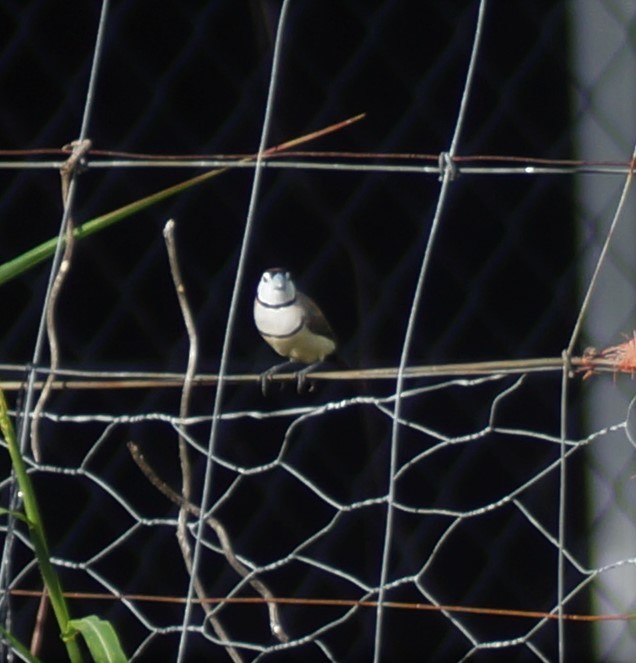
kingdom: Animalia
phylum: Chordata
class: Aves
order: Passeriformes
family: Estrildidae
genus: Taeniopygia
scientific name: Taeniopygia bichenovii
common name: Double-barred finch
